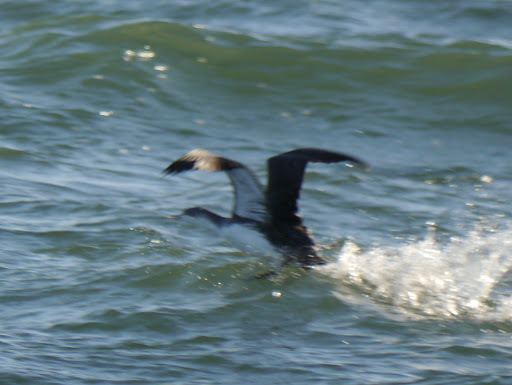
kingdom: Animalia
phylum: Chordata
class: Aves
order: Gaviiformes
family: Gaviidae
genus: Gavia
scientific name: Gavia stellata
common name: Red-throated loon
